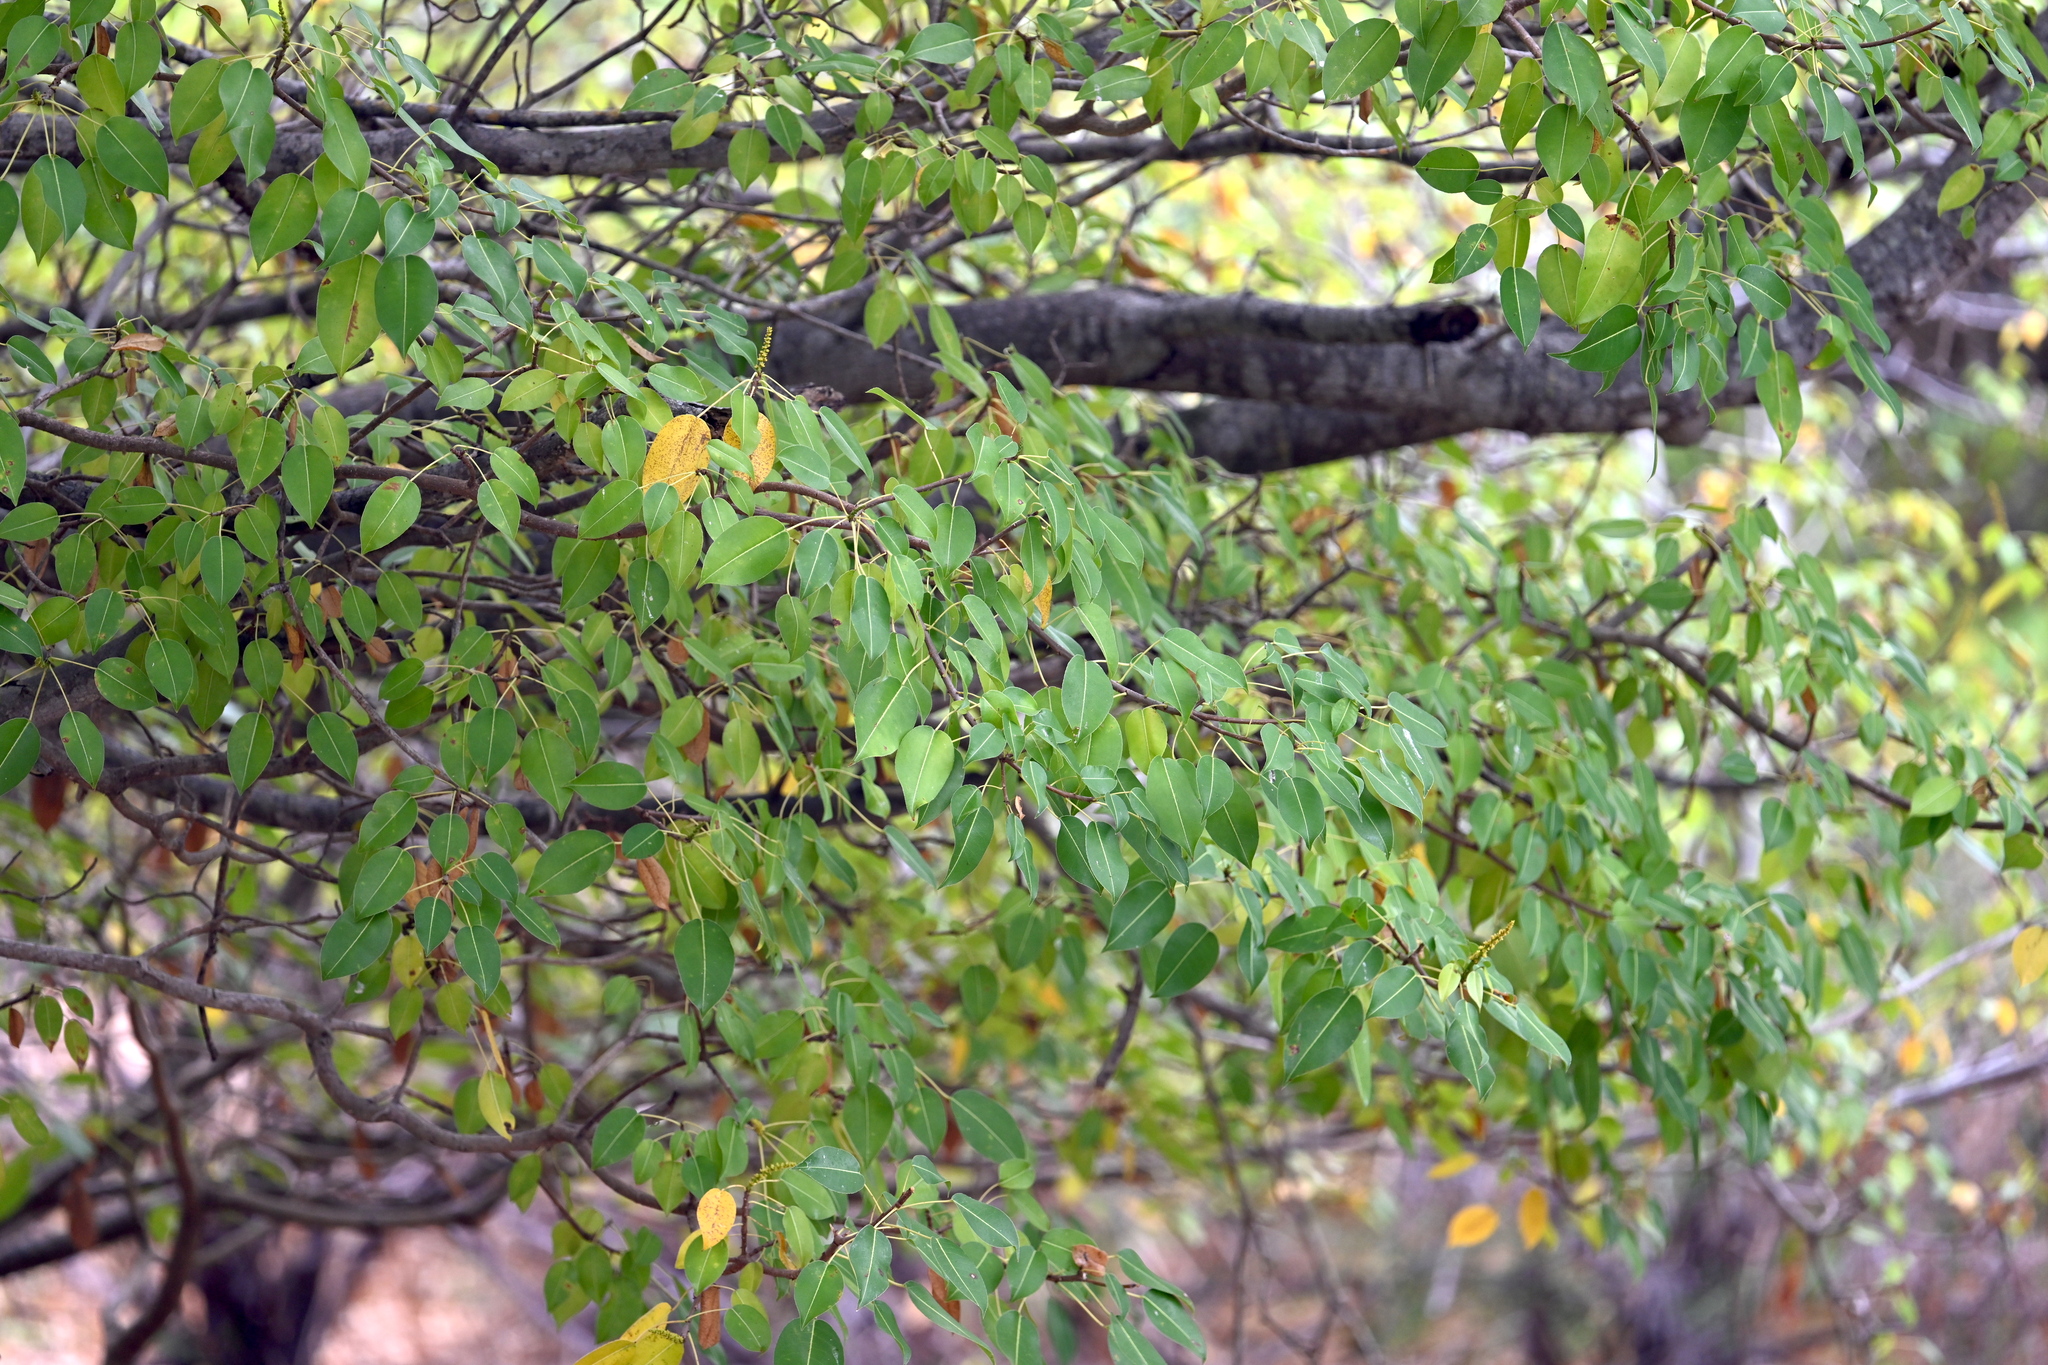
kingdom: Plantae
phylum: Tracheophyta
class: Magnoliopsida
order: Malpighiales
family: Euphorbiaceae
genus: Hippomane
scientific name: Hippomane mancinella
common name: Manchineel
